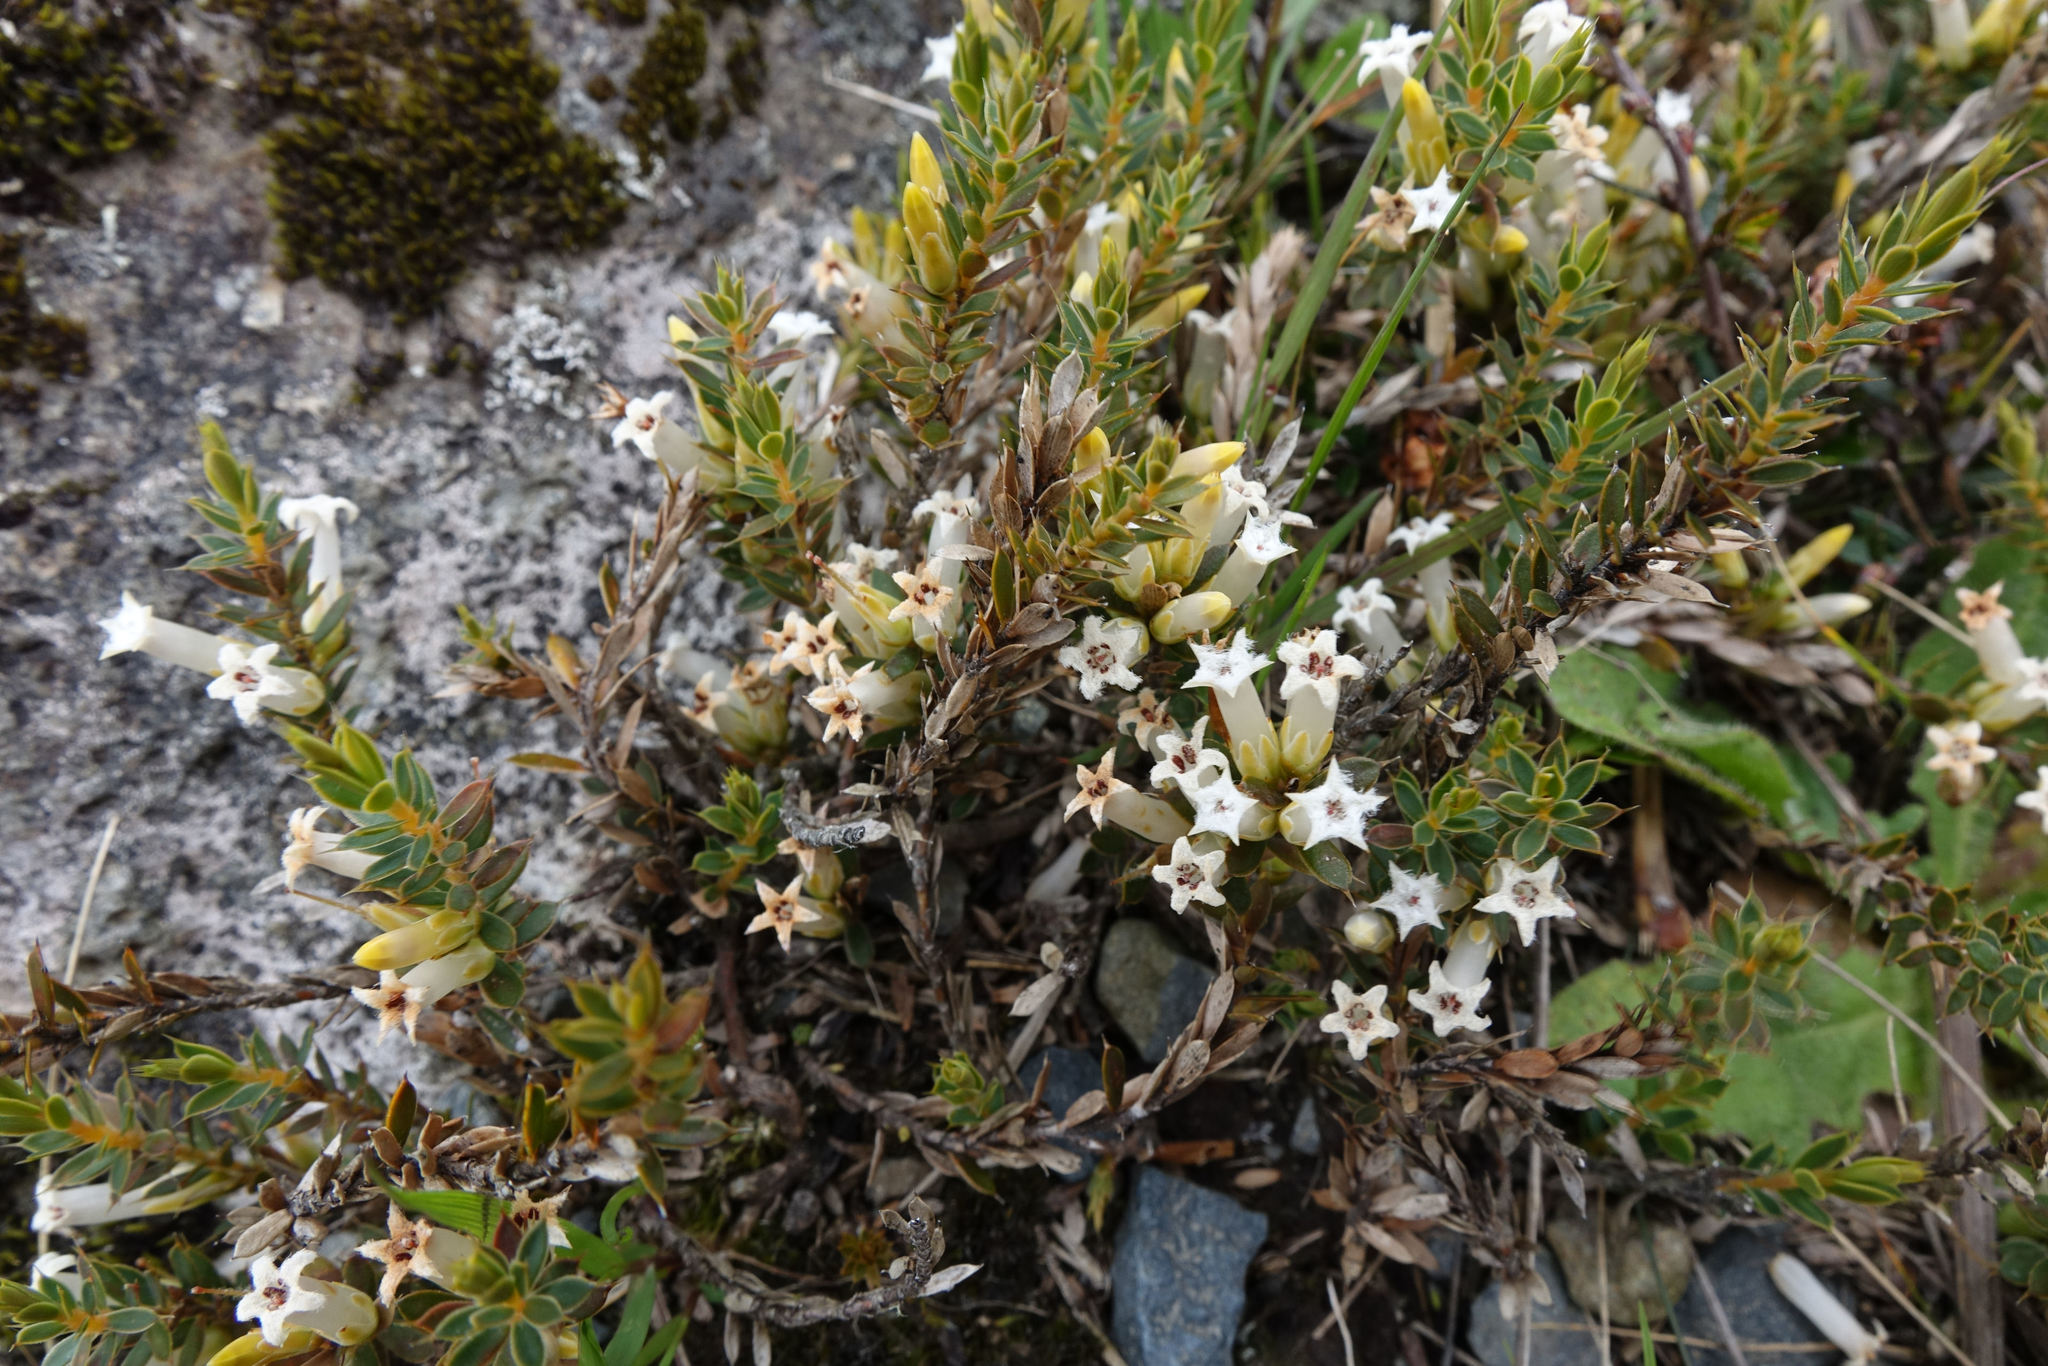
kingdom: Plantae
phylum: Tracheophyta
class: Magnoliopsida
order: Ericales
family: Ericaceae
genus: Styphelia
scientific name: Styphelia nesophila
